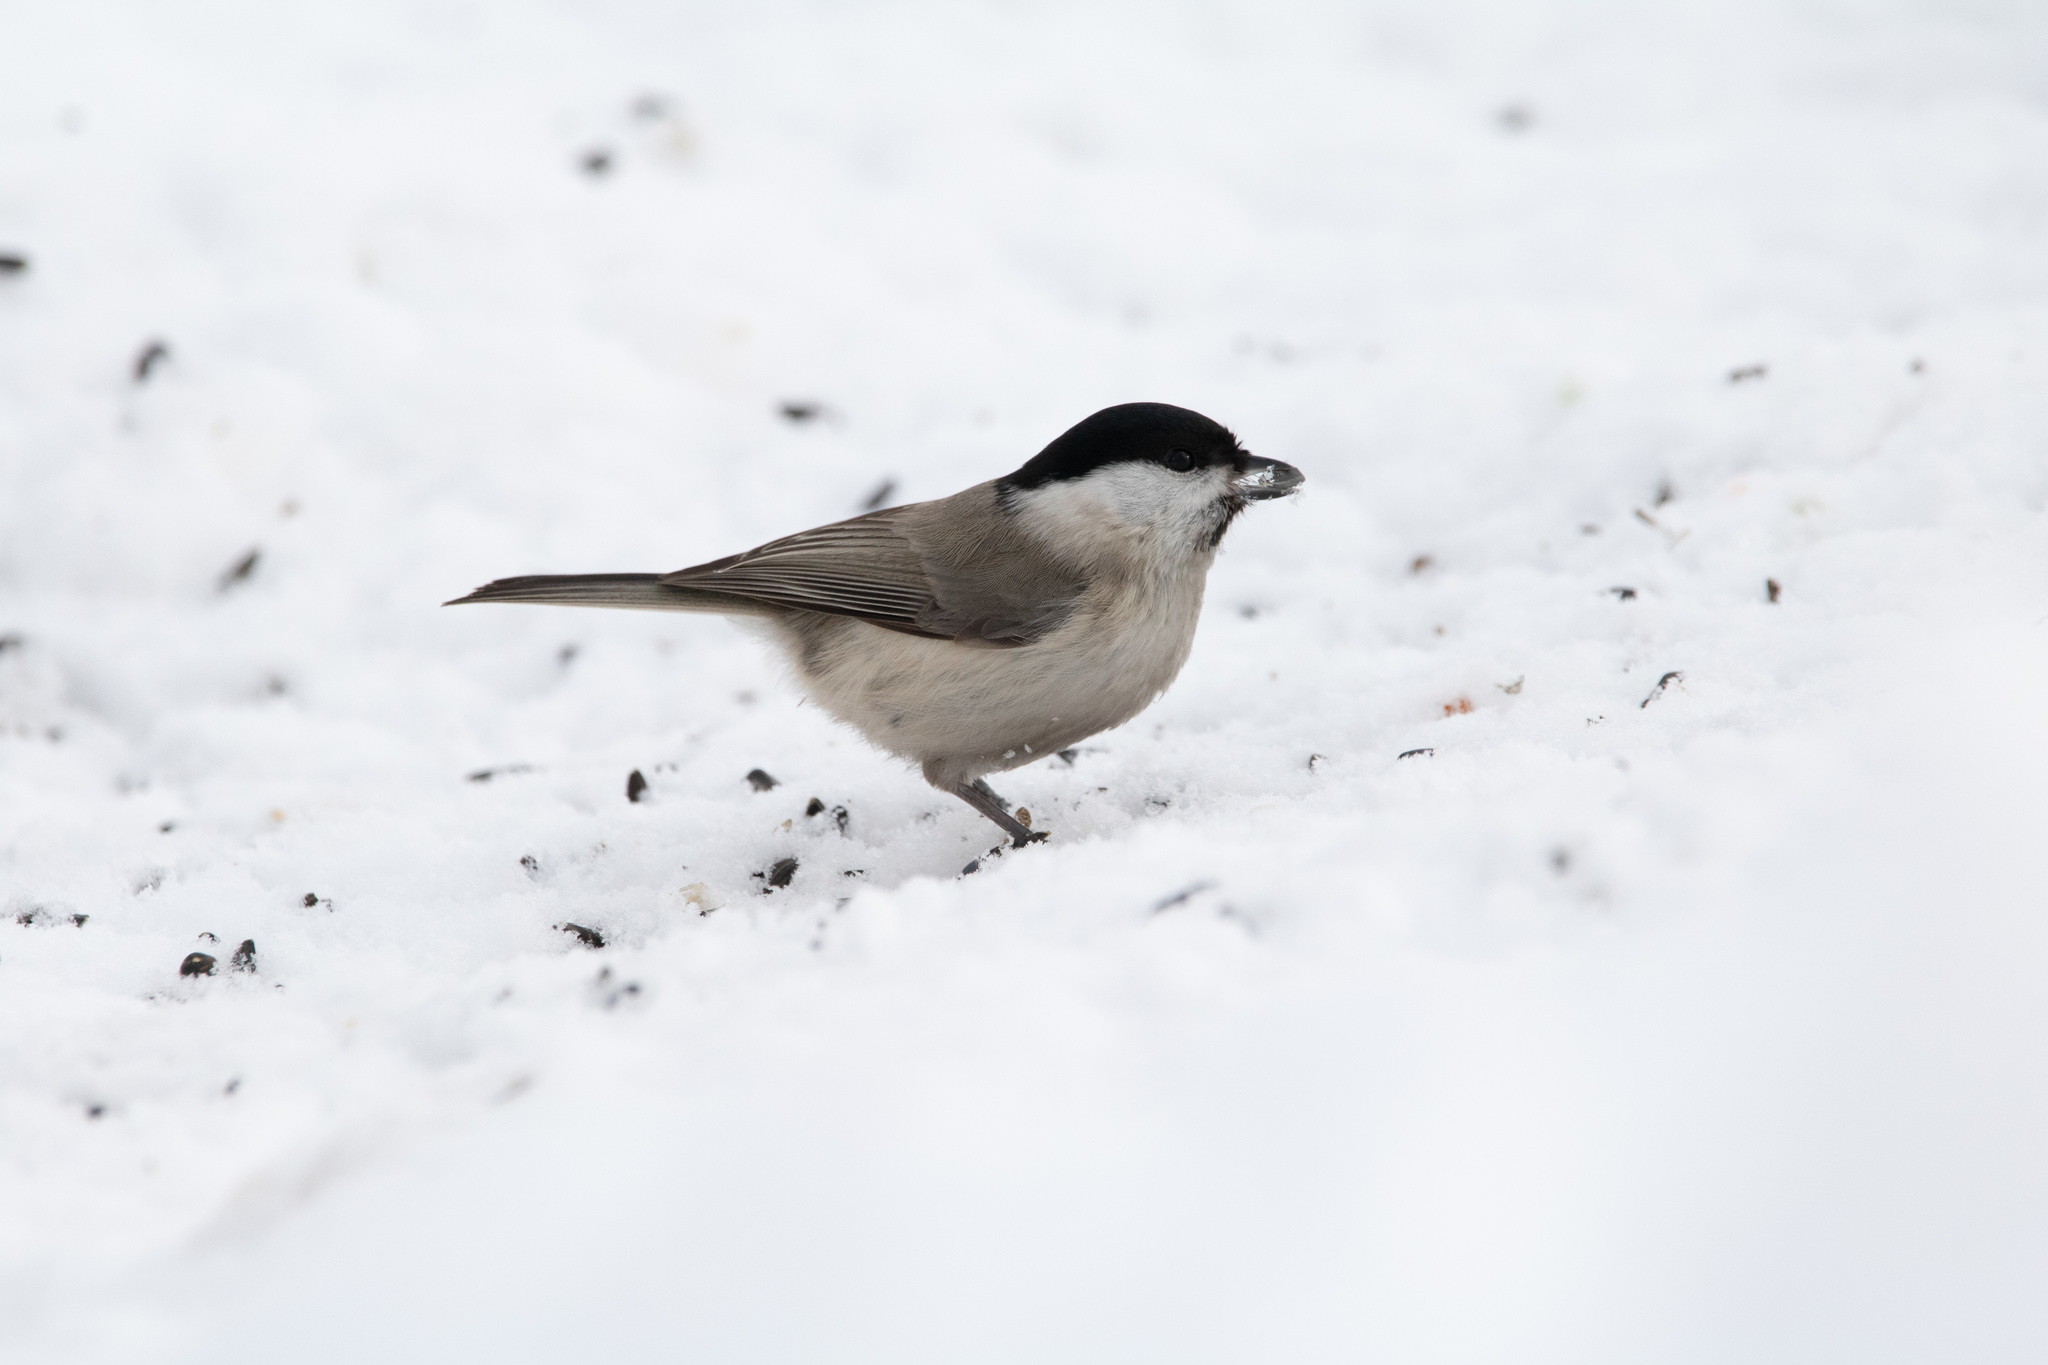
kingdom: Animalia
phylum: Chordata
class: Aves
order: Passeriformes
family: Paridae
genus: Poecile
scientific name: Poecile palustris
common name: Marsh tit
